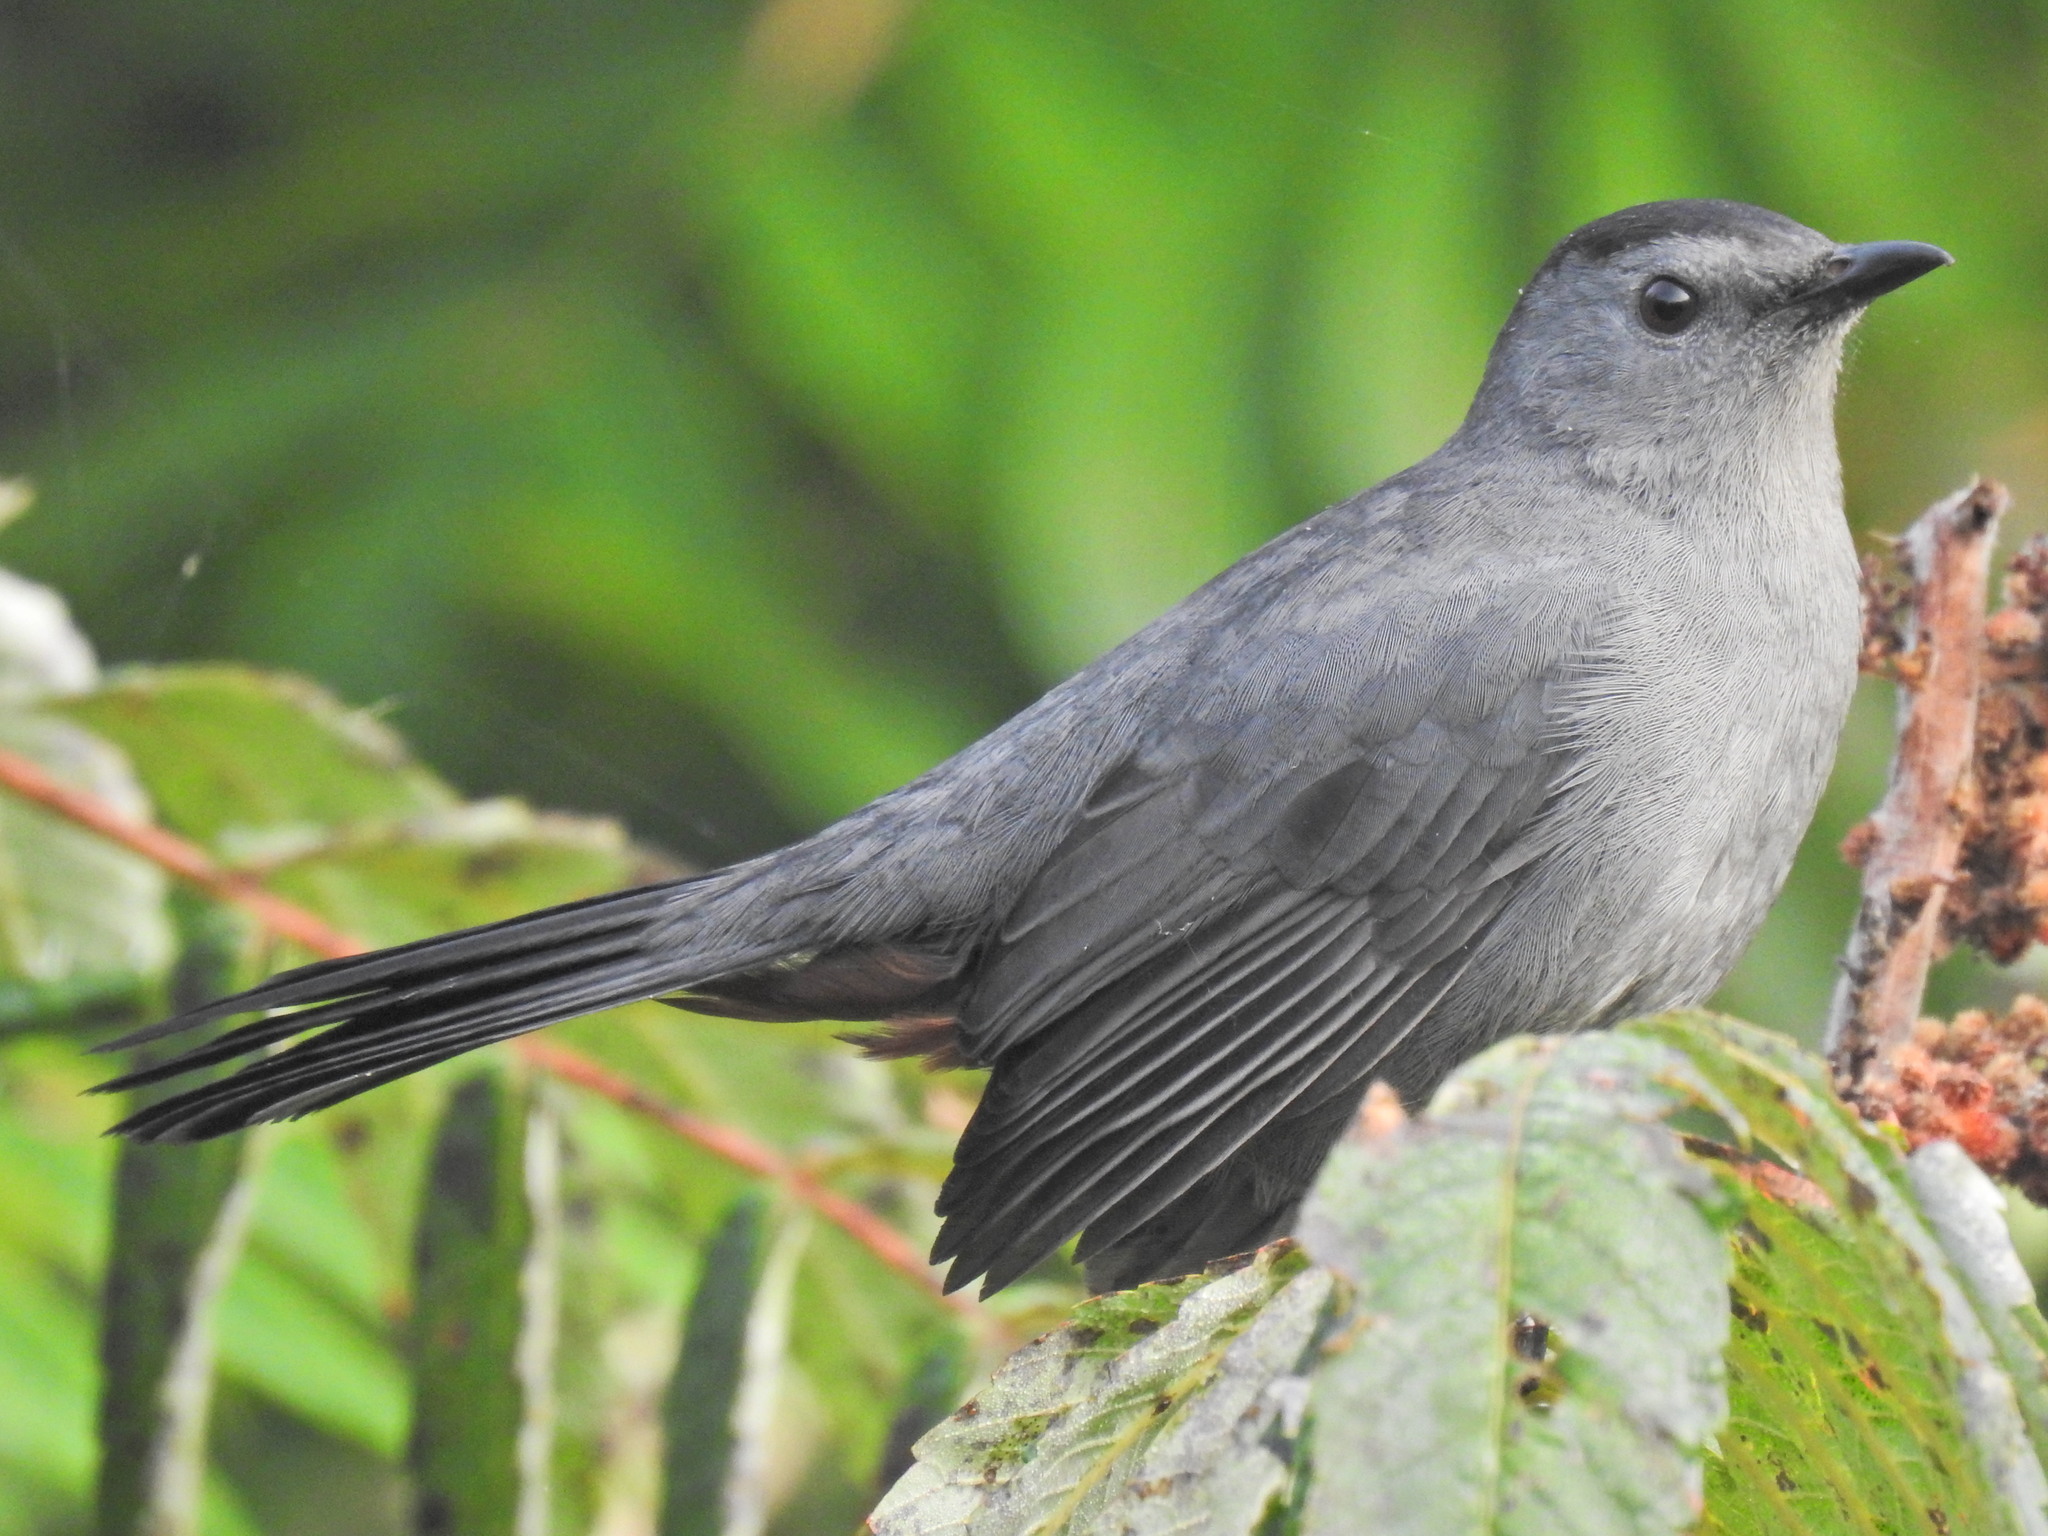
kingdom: Animalia
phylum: Chordata
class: Aves
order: Passeriformes
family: Mimidae
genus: Dumetella
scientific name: Dumetella carolinensis
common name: Gray catbird
